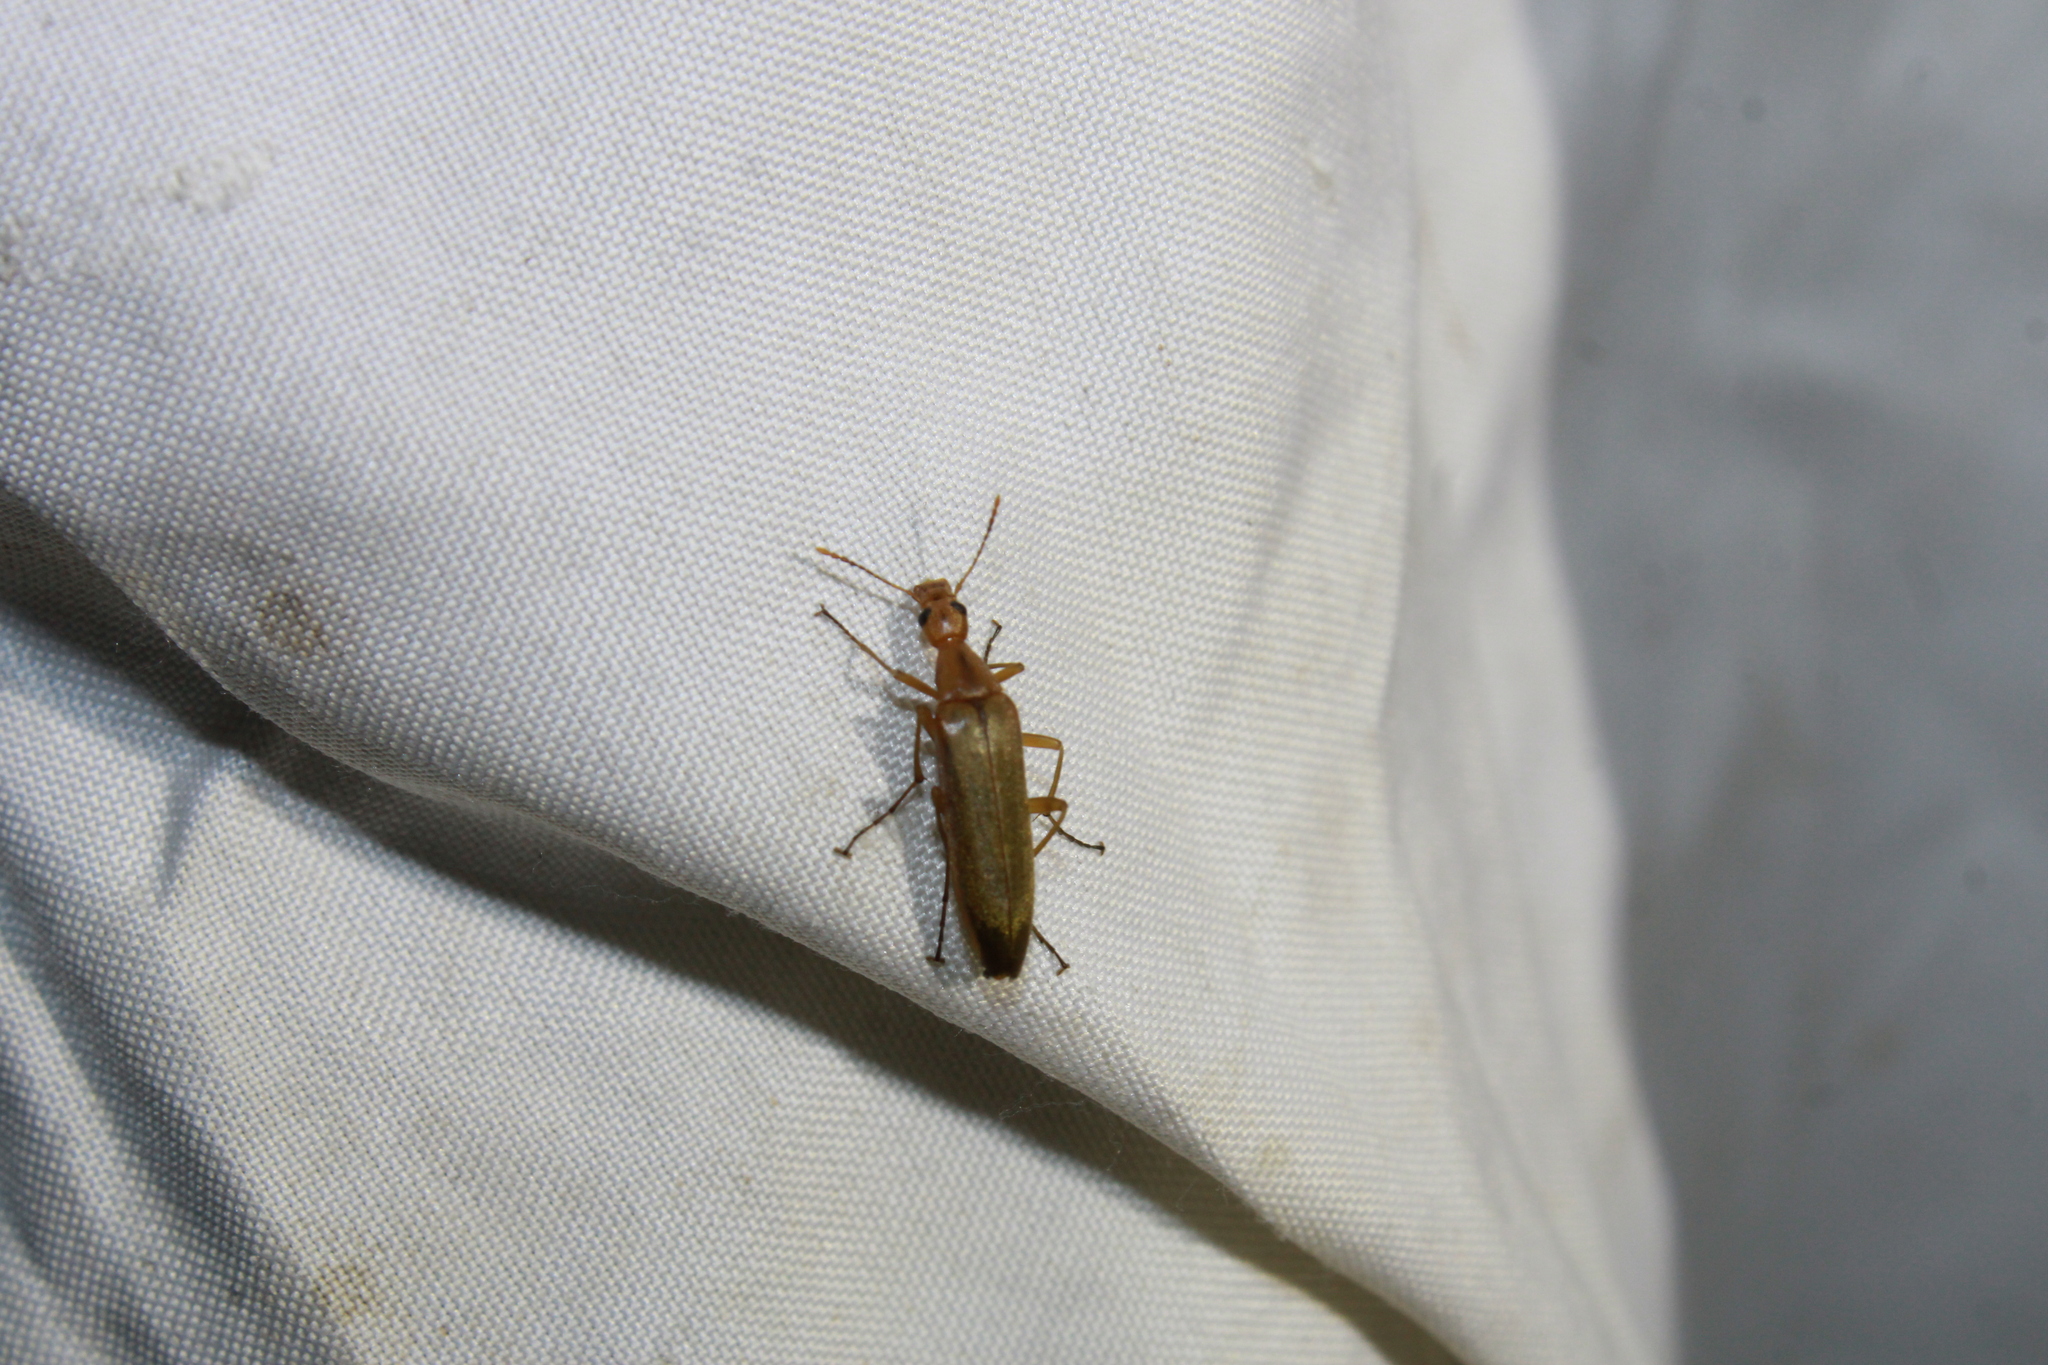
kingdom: Animalia
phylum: Arthropoda
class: Insecta
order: Coleoptera
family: Stenotrachelidae
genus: Cephaloon
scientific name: Cephaloon lepturides
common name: False leptura beetle
